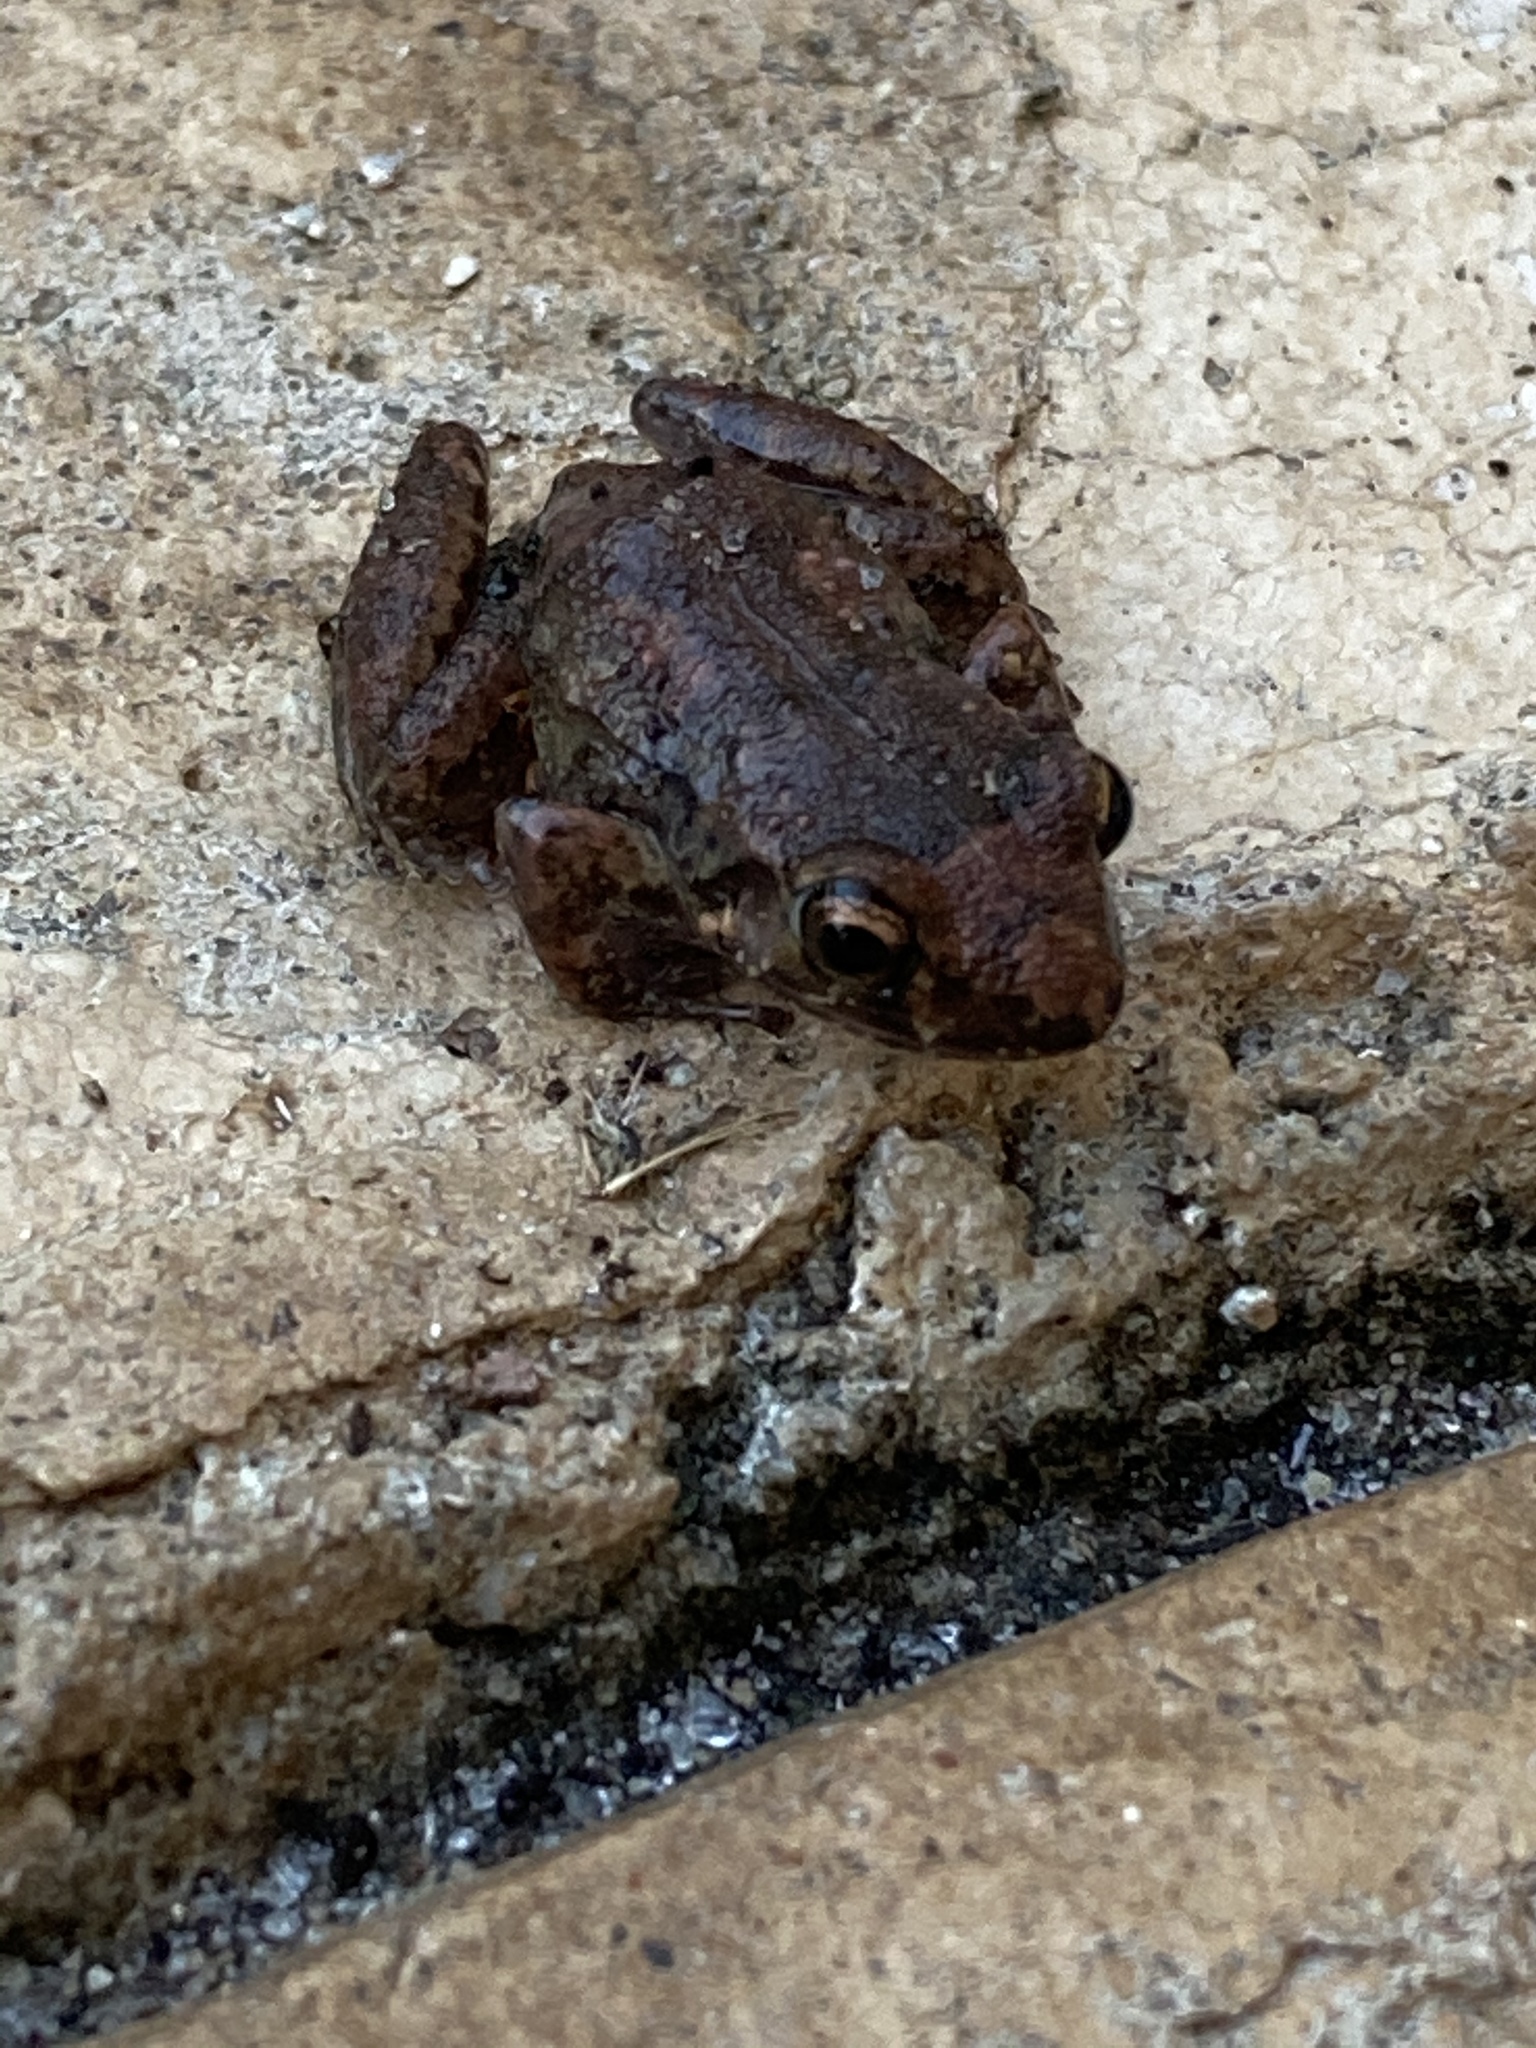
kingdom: Animalia
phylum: Chordata
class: Amphibia
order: Anura
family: Eleutherodactylidae
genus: Eleutherodactylus
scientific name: Eleutherodactylus planirostris
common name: Greenhouse frog
